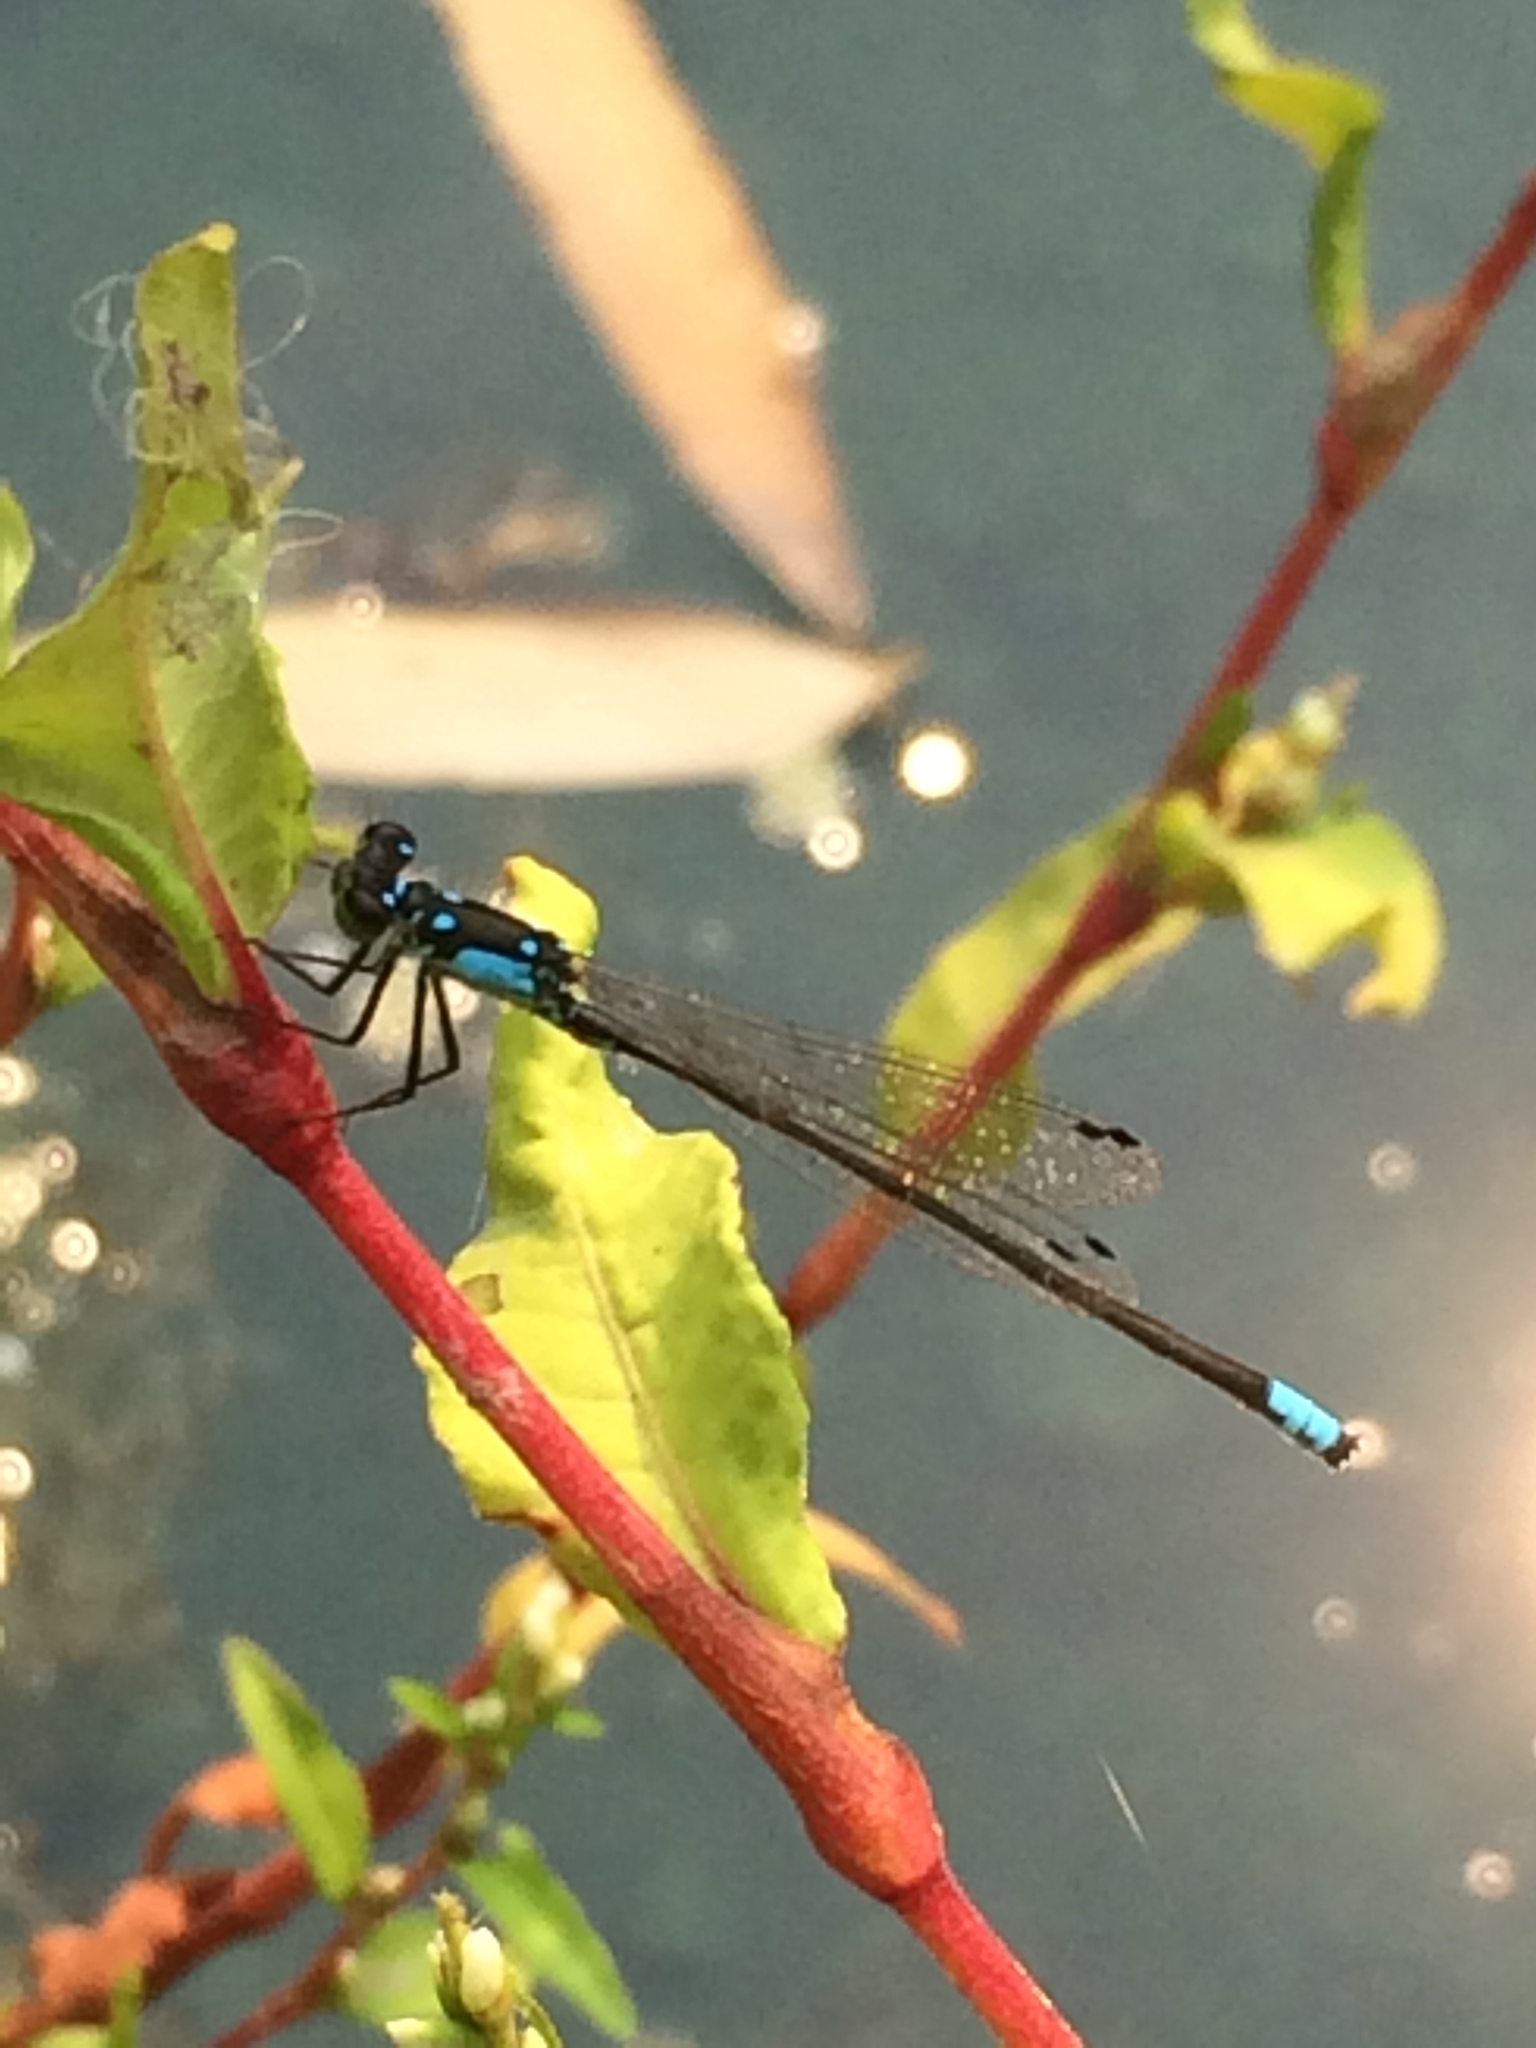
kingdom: Animalia
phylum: Arthropoda
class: Insecta
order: Odonata
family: Coenagrionidae
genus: Ischnura
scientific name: Ischnura cervula
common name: Pacific forktail
